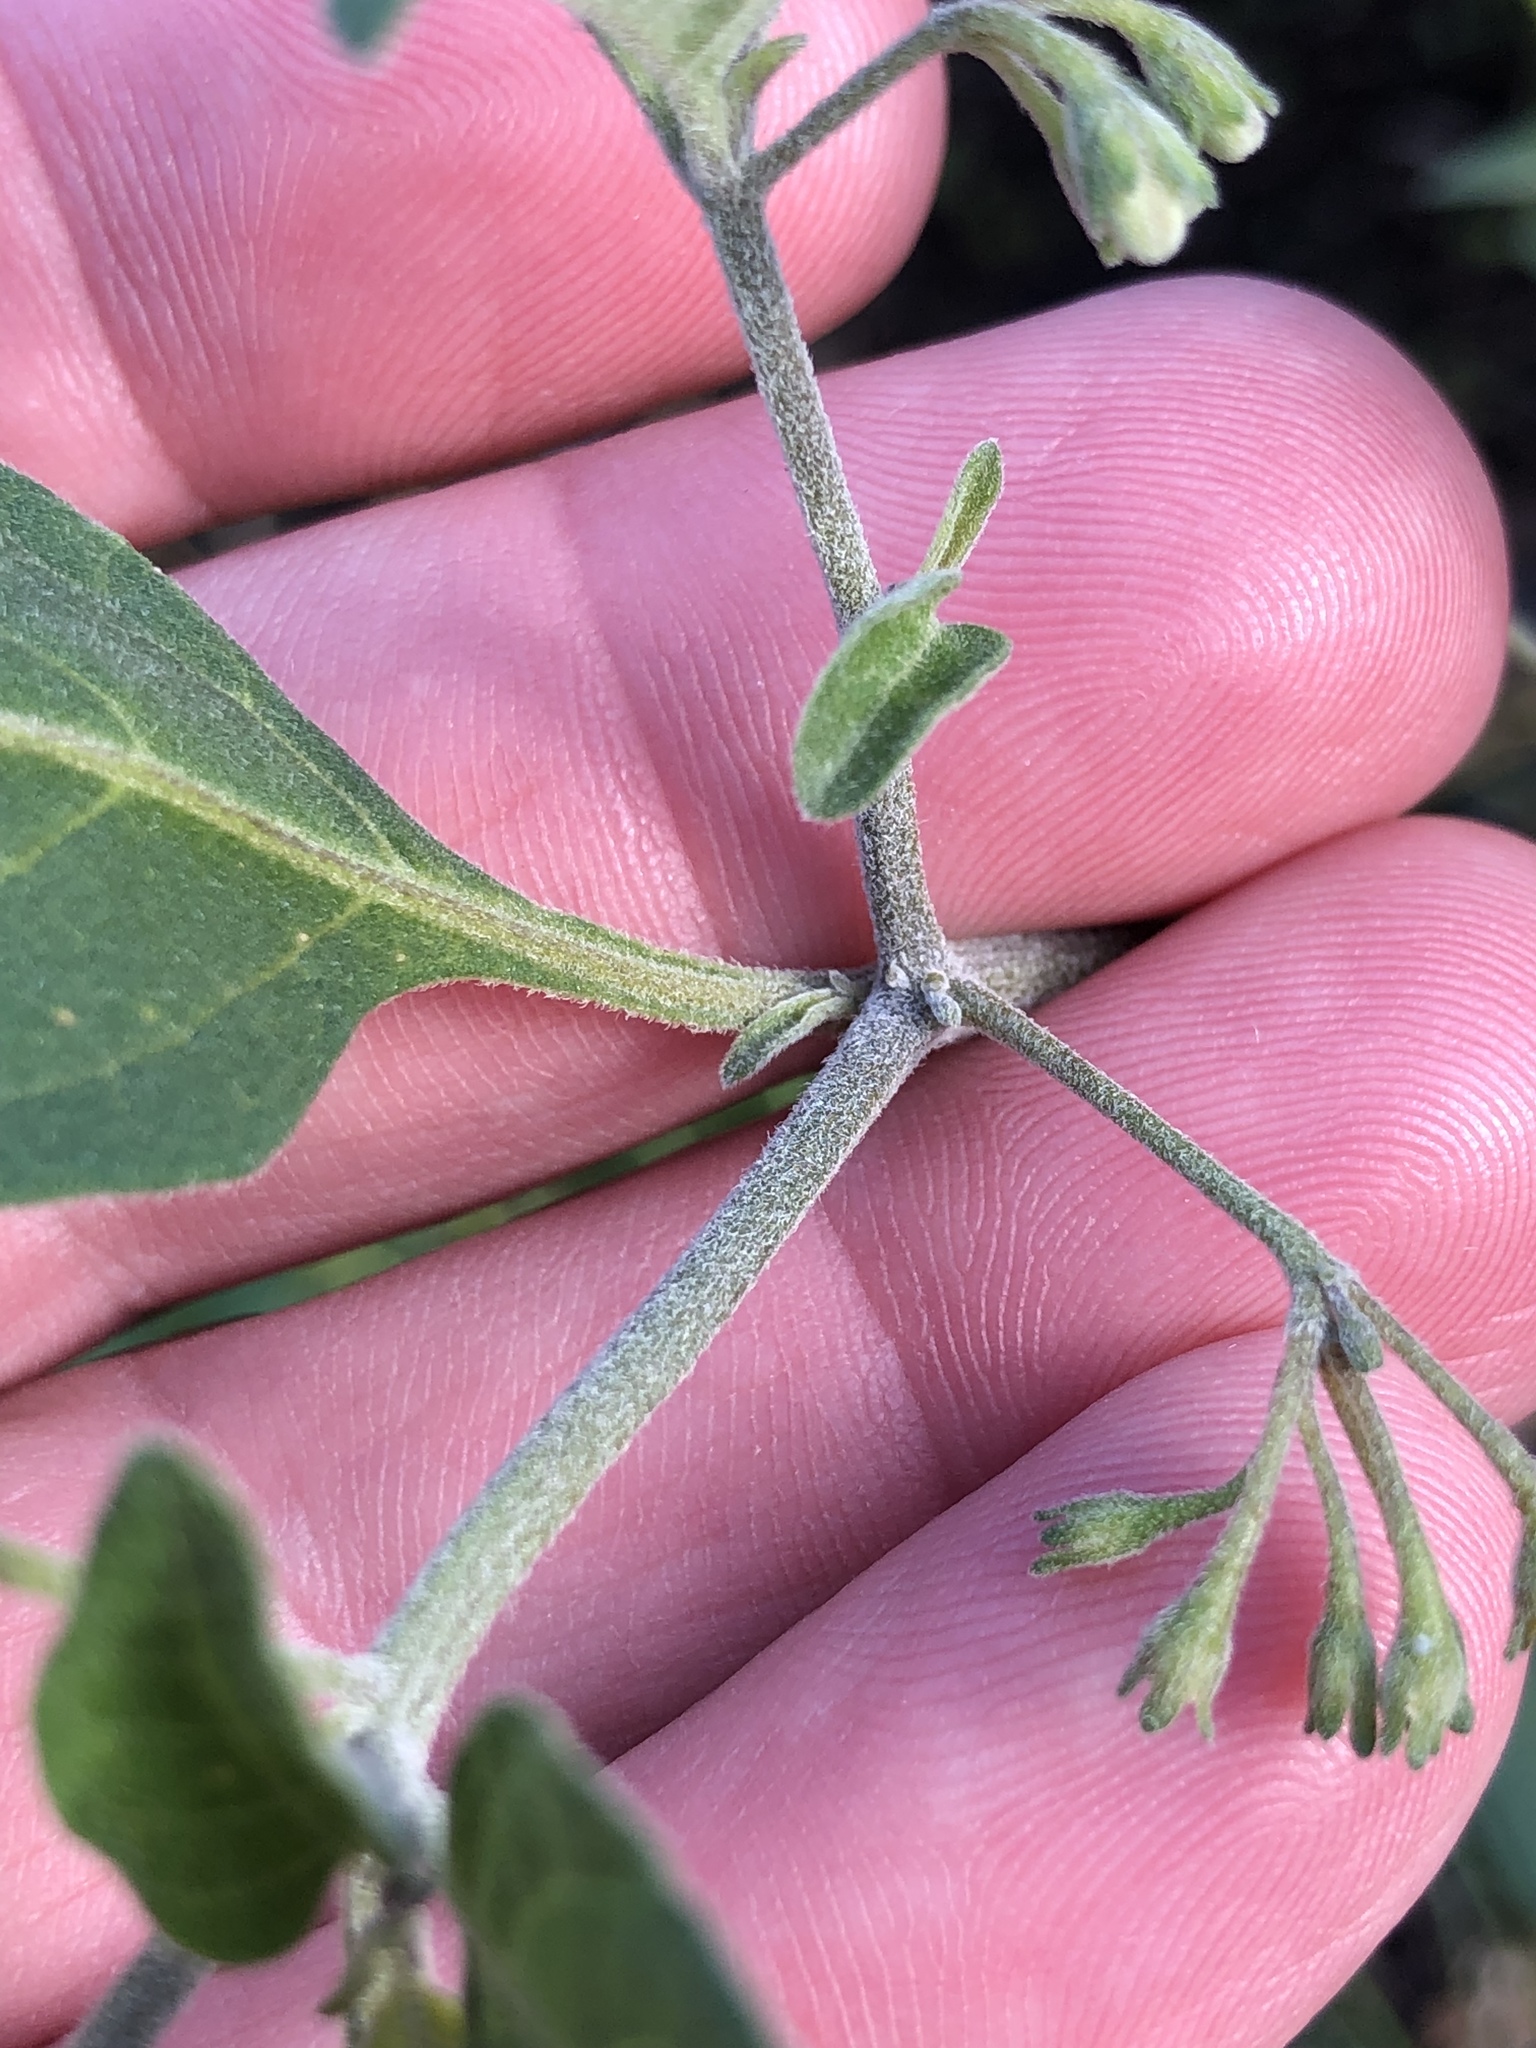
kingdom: Plantae
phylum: Tracheophyta
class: Magnoliopsida
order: Solanales
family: Solanaceae
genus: Solanum
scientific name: Solanum chenopodioides
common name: Tall nightshade
